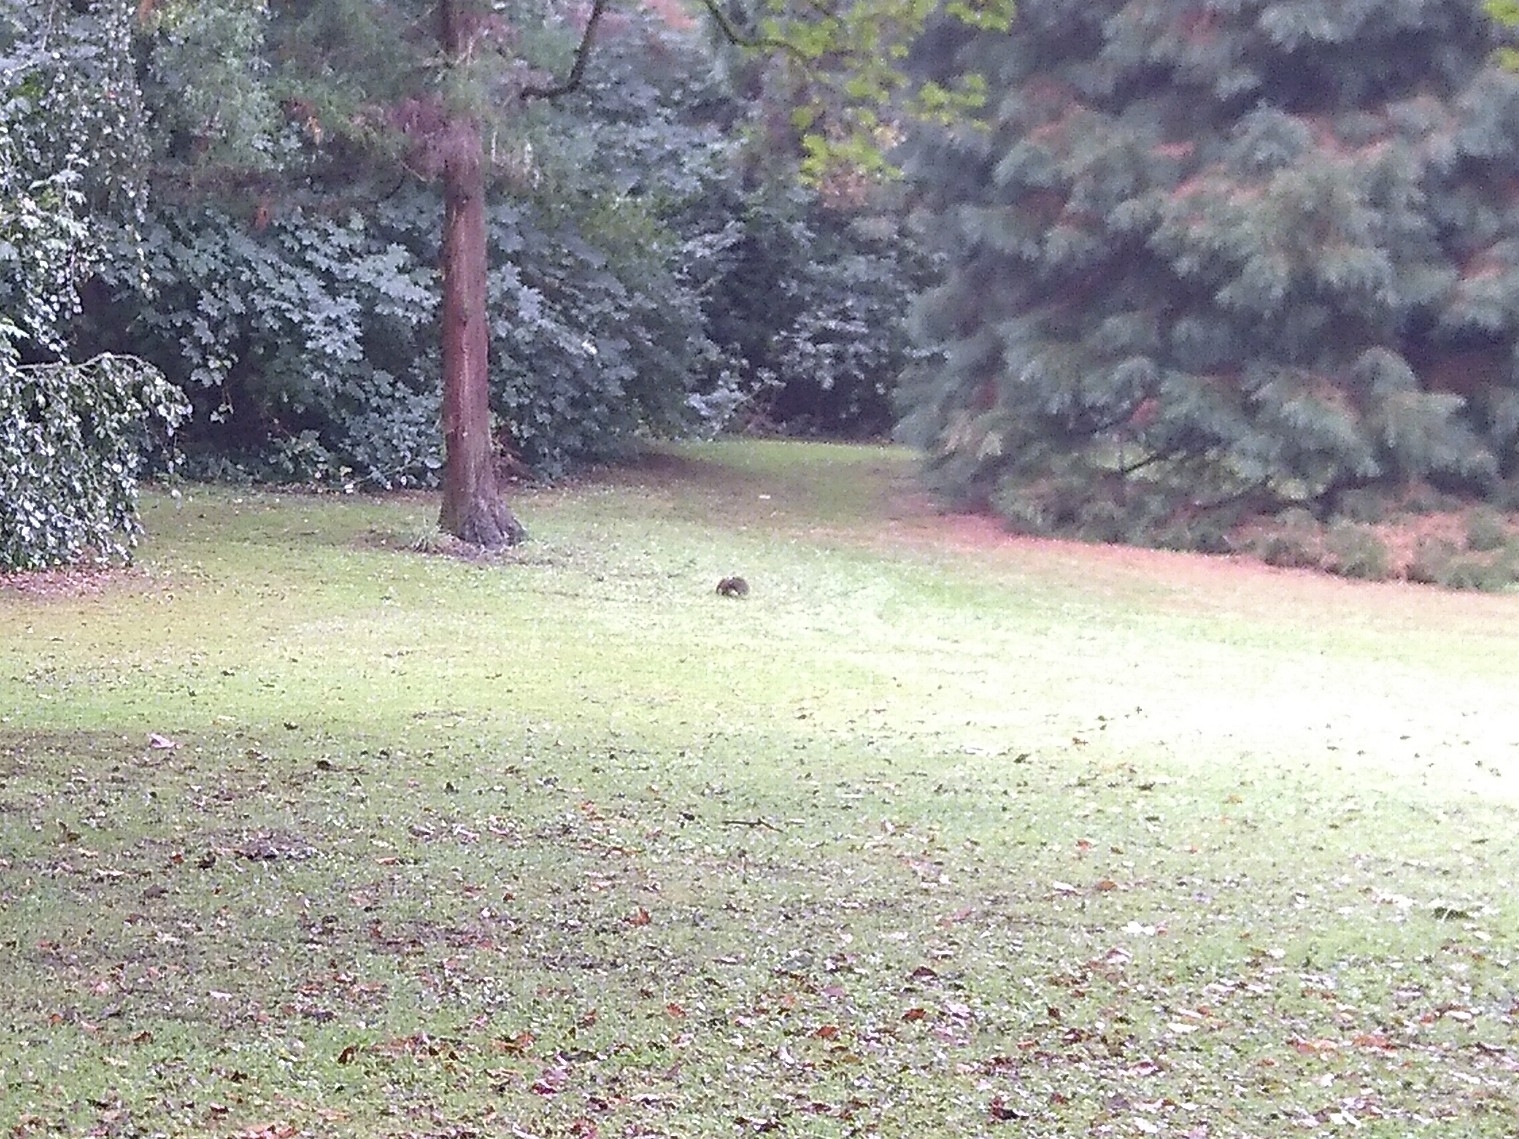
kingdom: Animalia
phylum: Chordata
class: Mammalia
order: Rodentia
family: Sciuridae
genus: Sciurus
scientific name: Sciurus vulgaris
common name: Eurasian red squirrel
